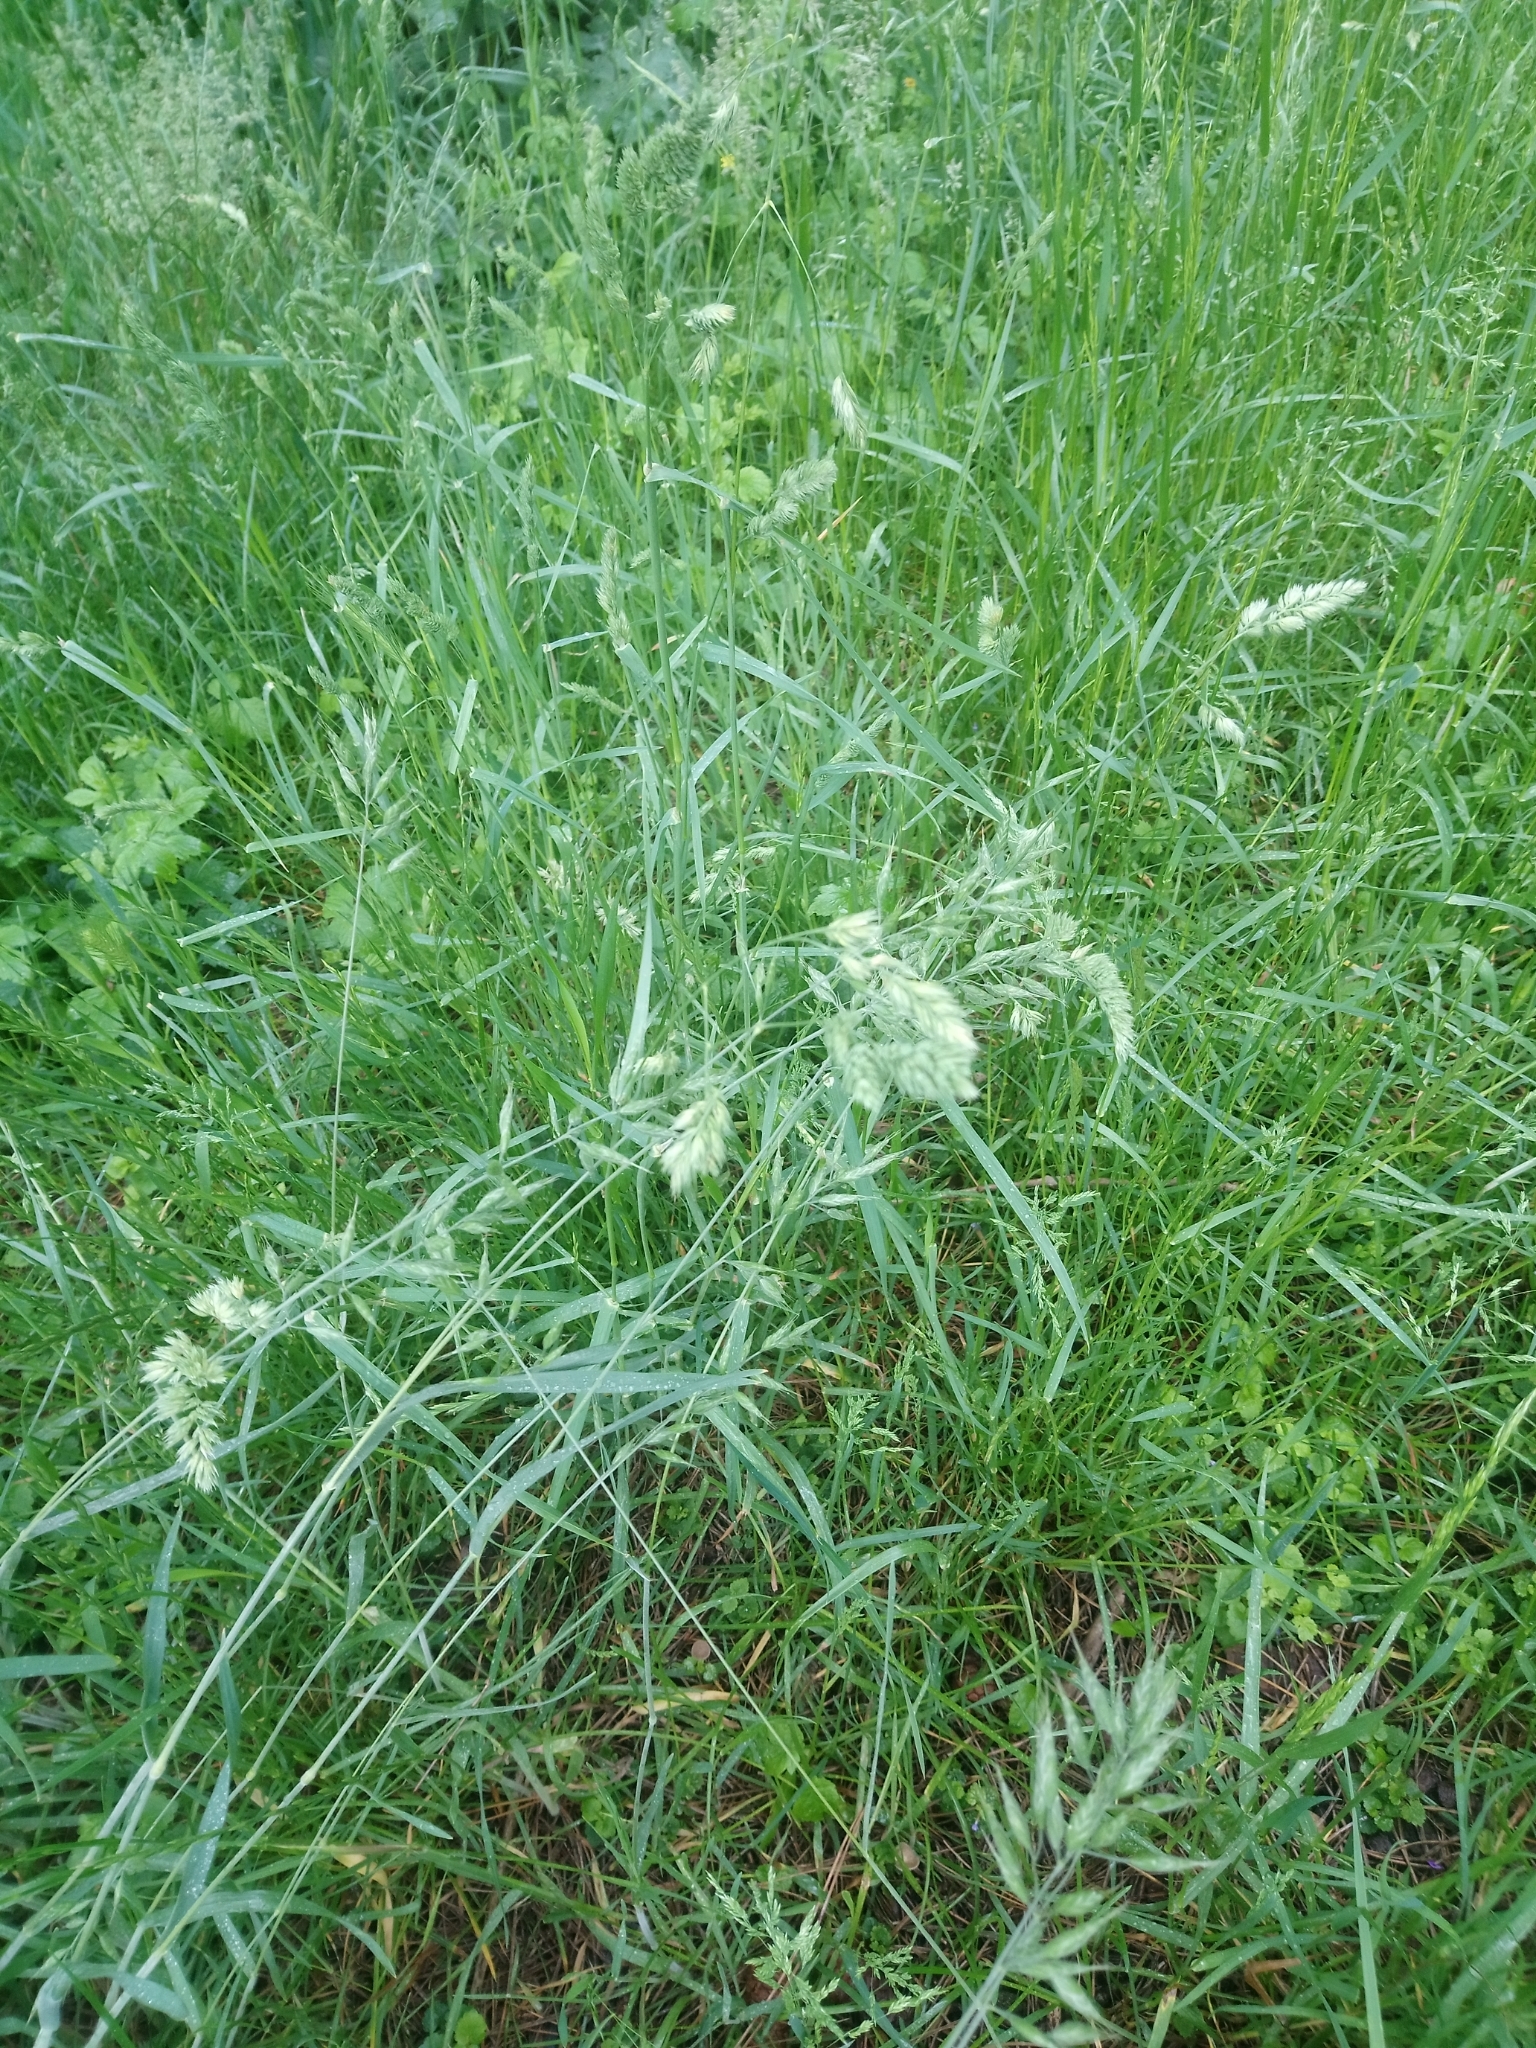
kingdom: Plantae
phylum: Tracheophyta
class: Liliopsida
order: Poales
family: Poaceae
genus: Dactylis
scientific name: Dactylis glomerata
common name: Orchardgrass
